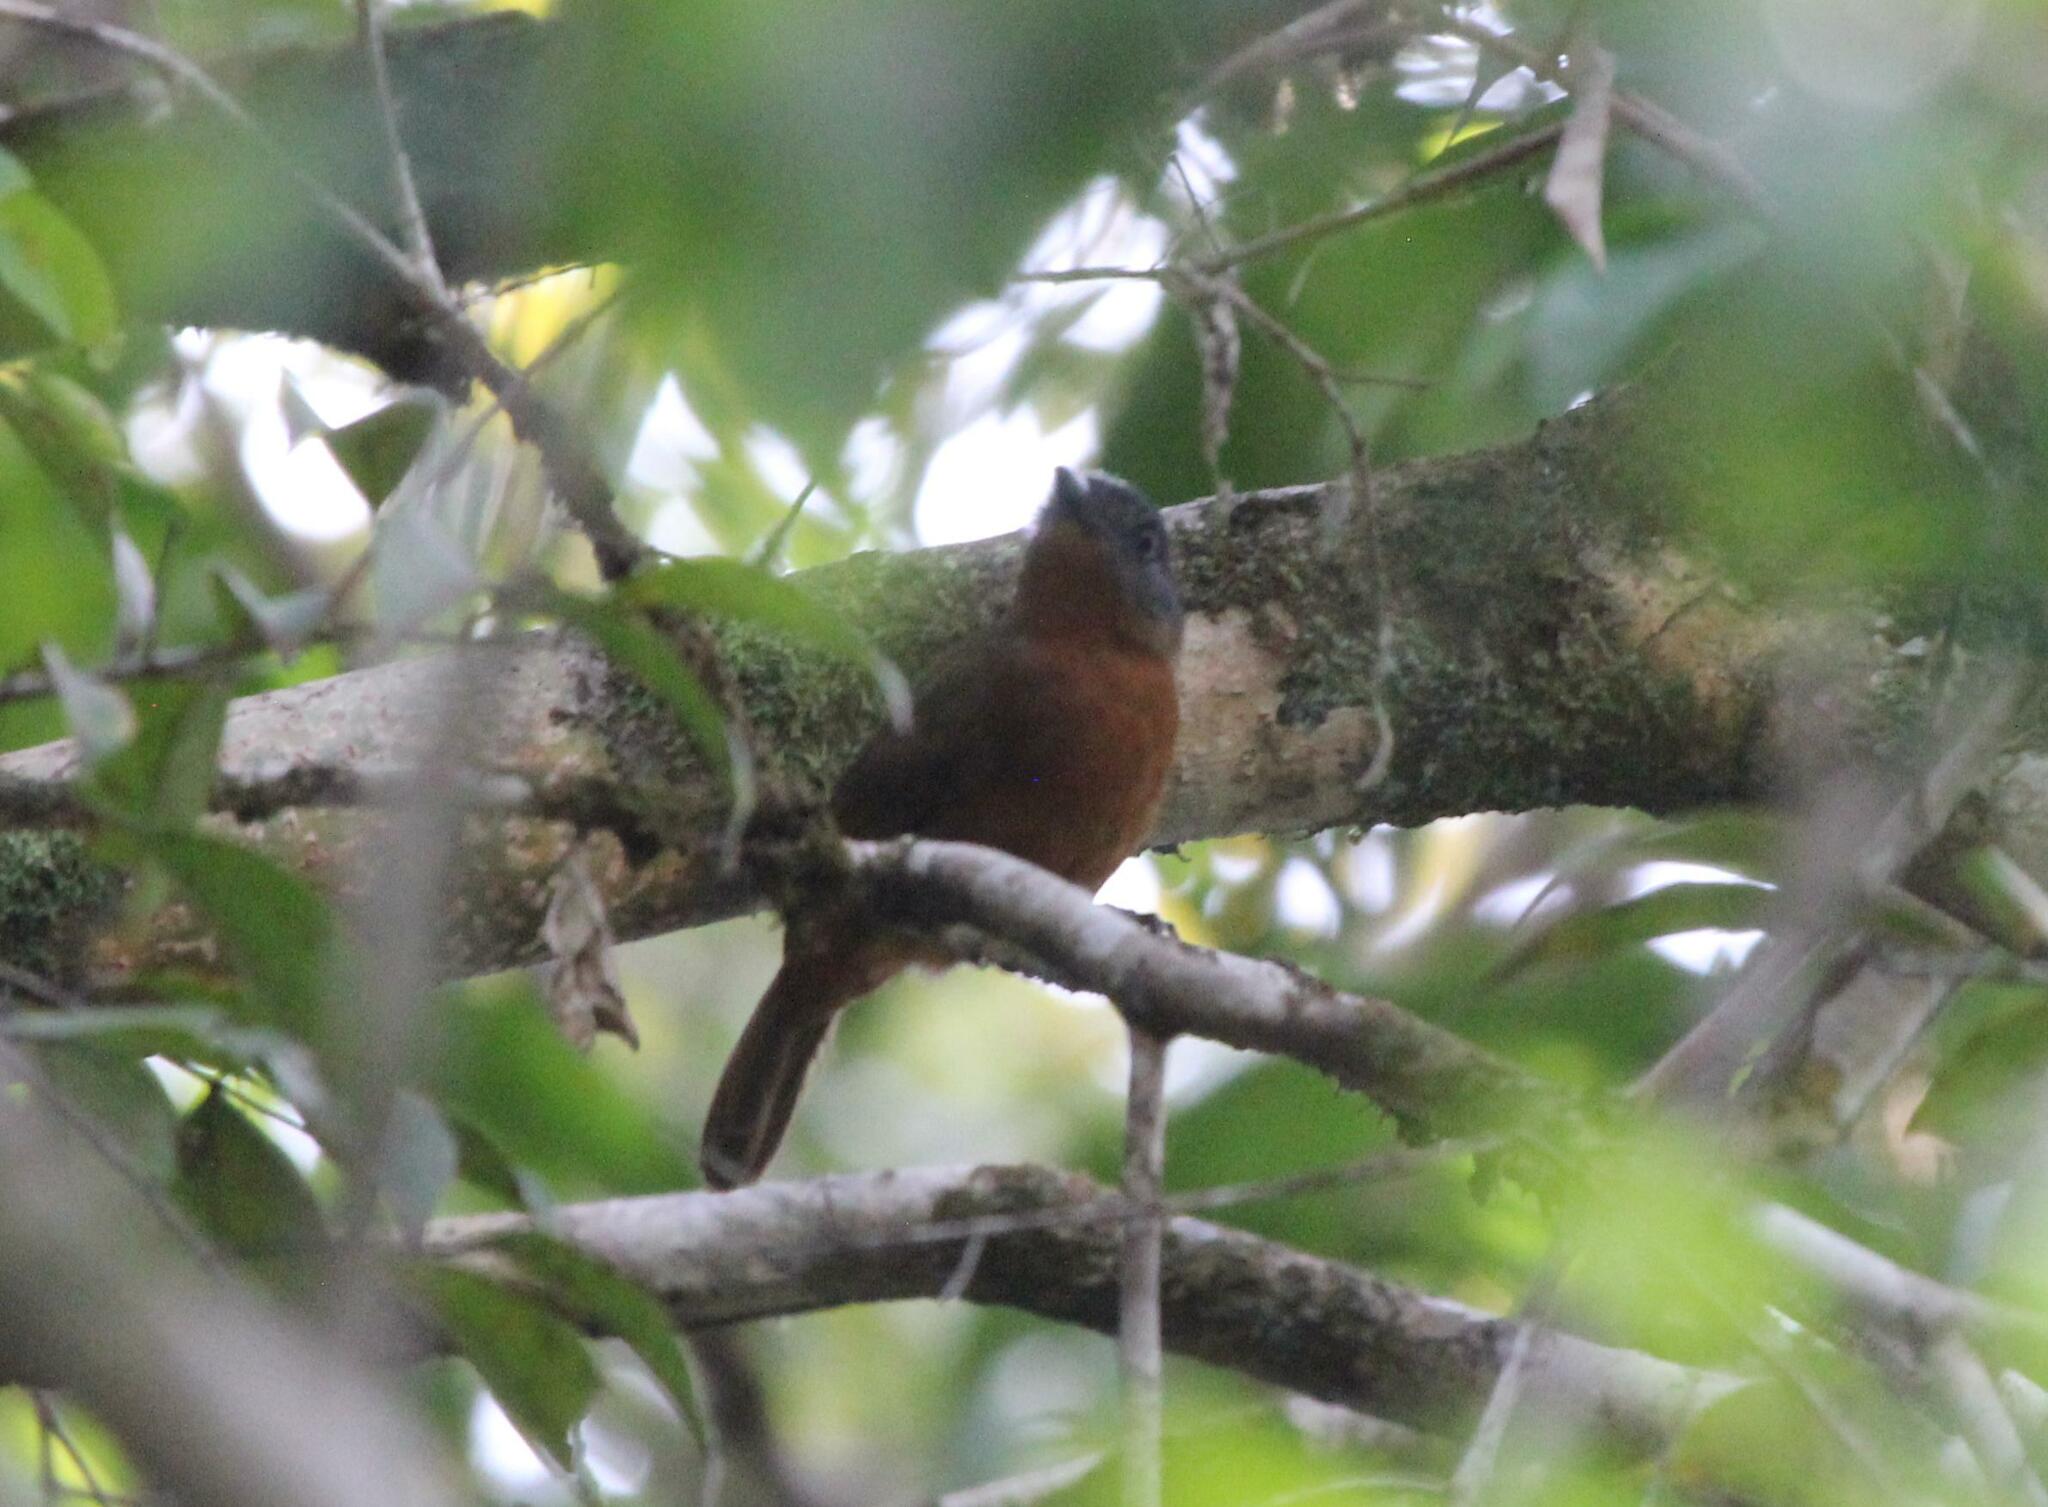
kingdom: Animalia
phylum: Chordata
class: Aves
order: Passeriformes
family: Thamnophilidae
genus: Thamnophilus
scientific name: Thamnophilus nigrocinereus
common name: Blackish-grey antshrike
